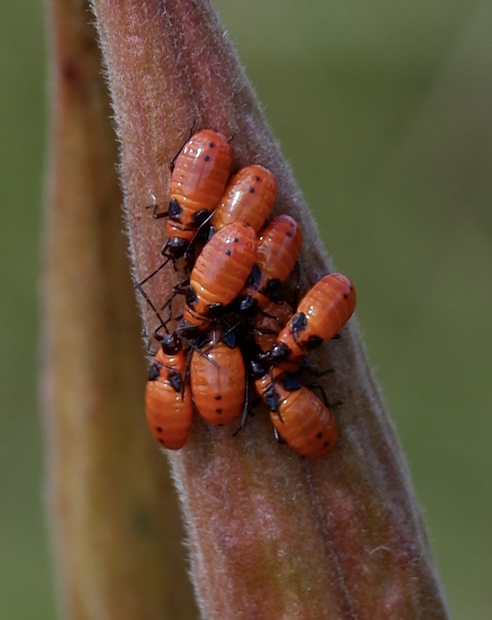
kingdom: Animalia
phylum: Arthropoda
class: Insecta
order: Hemiptera
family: Lygaeidae
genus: Oncopeltus
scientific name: Oncopeltus fasciatus
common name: Large milkweed bug
